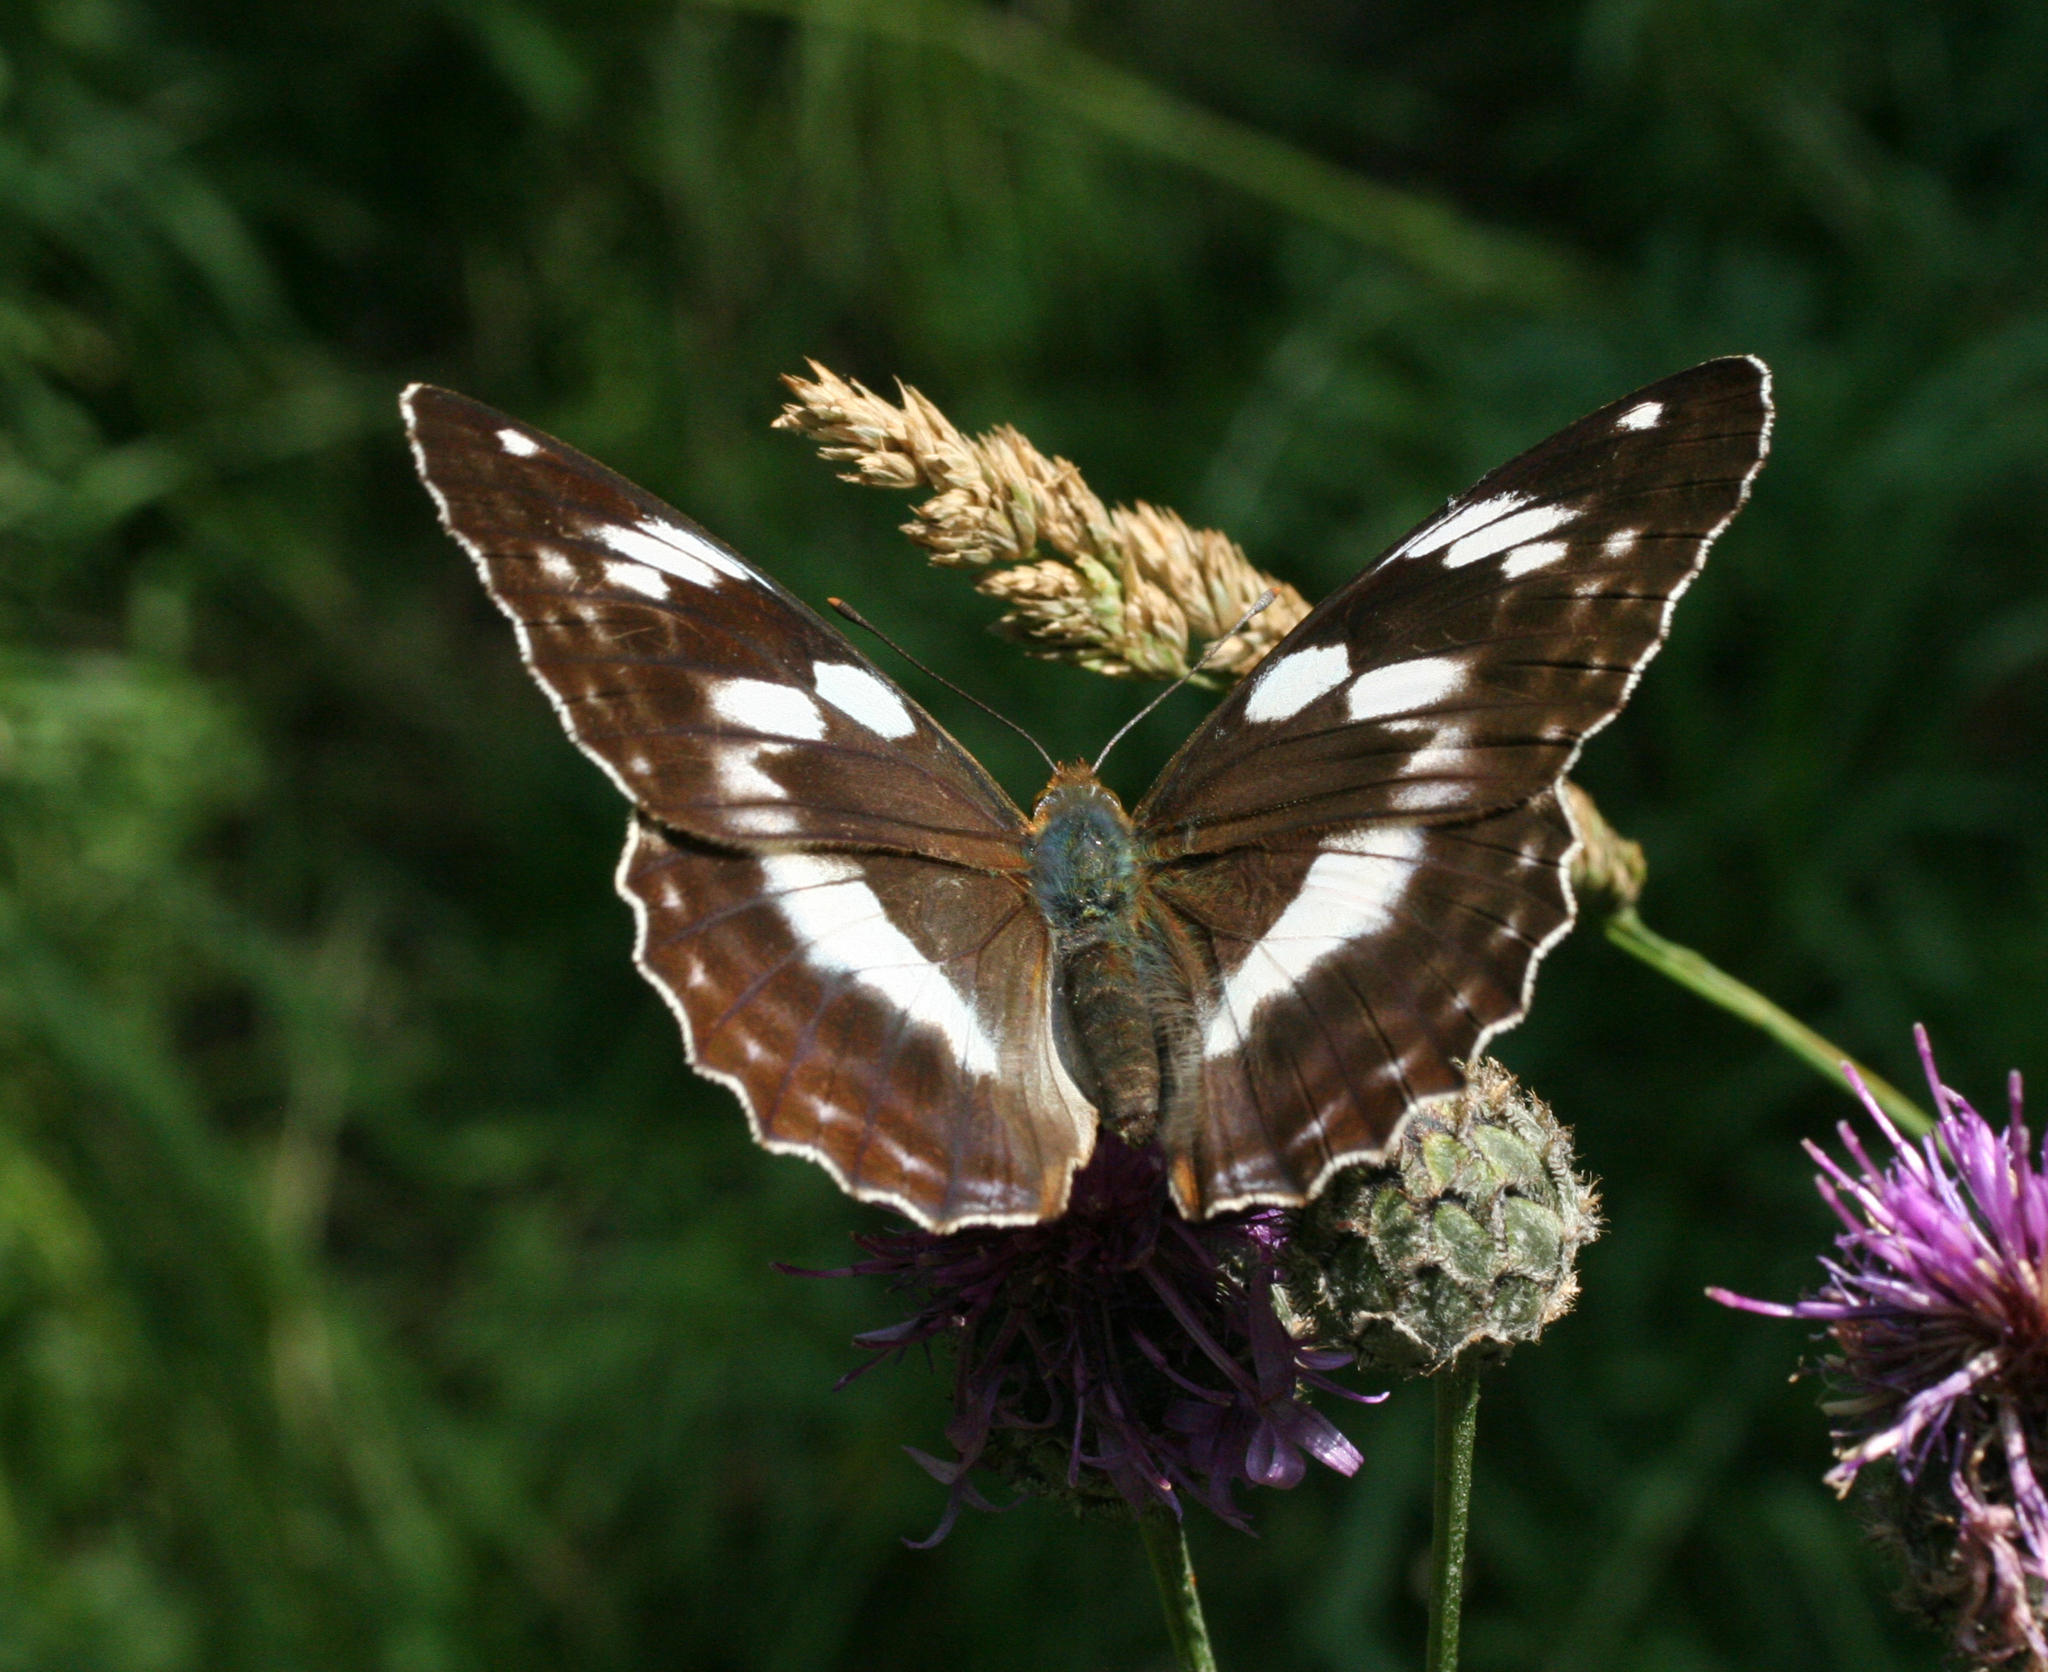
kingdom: Animalia
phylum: Arthropoda
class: Insecta
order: Lepidoptera
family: Nymphalidae
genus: Damora
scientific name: Damora sagana
